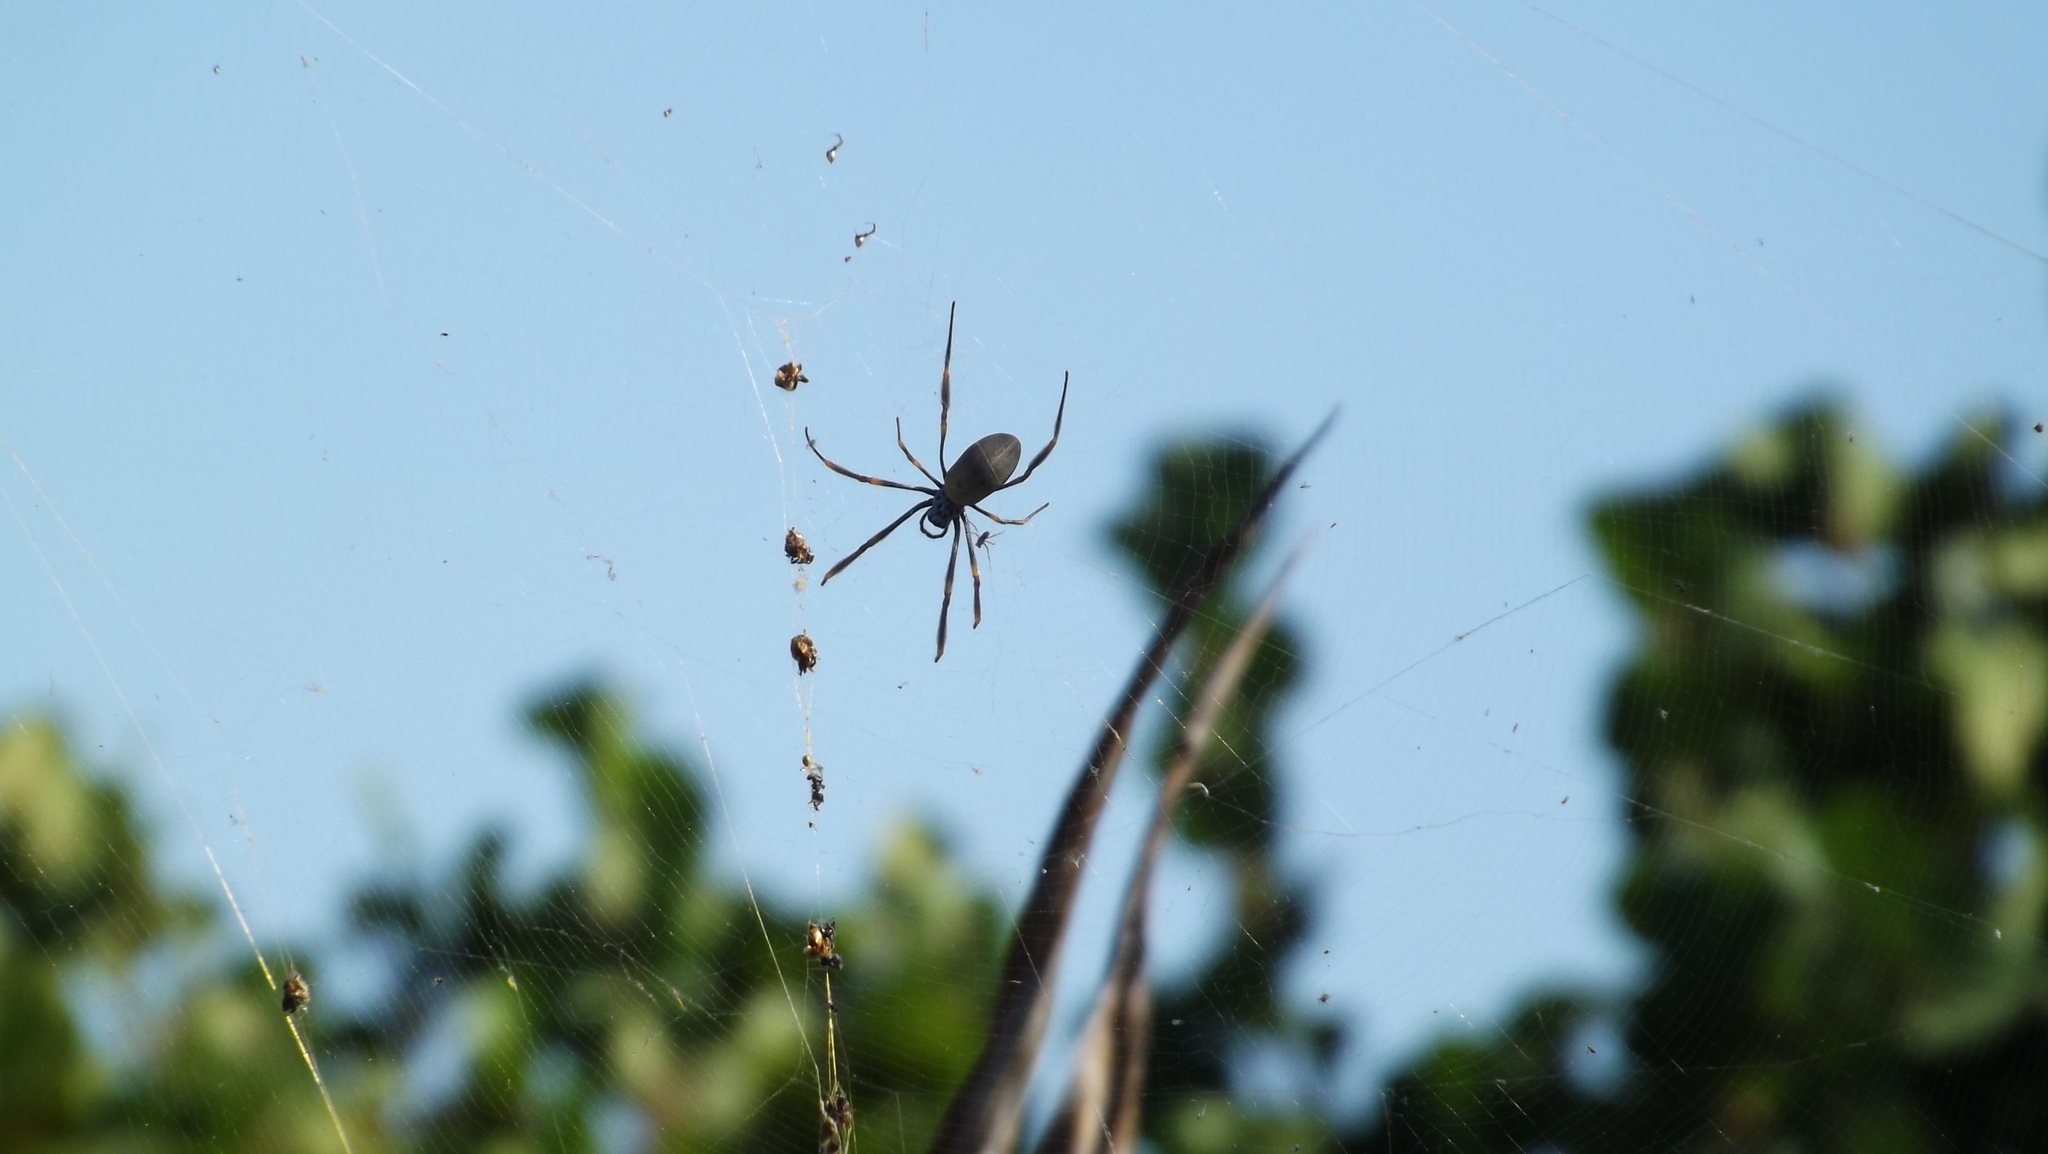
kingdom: Animalia
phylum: Arthropoda
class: Arachnida
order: Araneae
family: Araneidae
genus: Trichonephila
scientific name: Trichonephila plumipes
